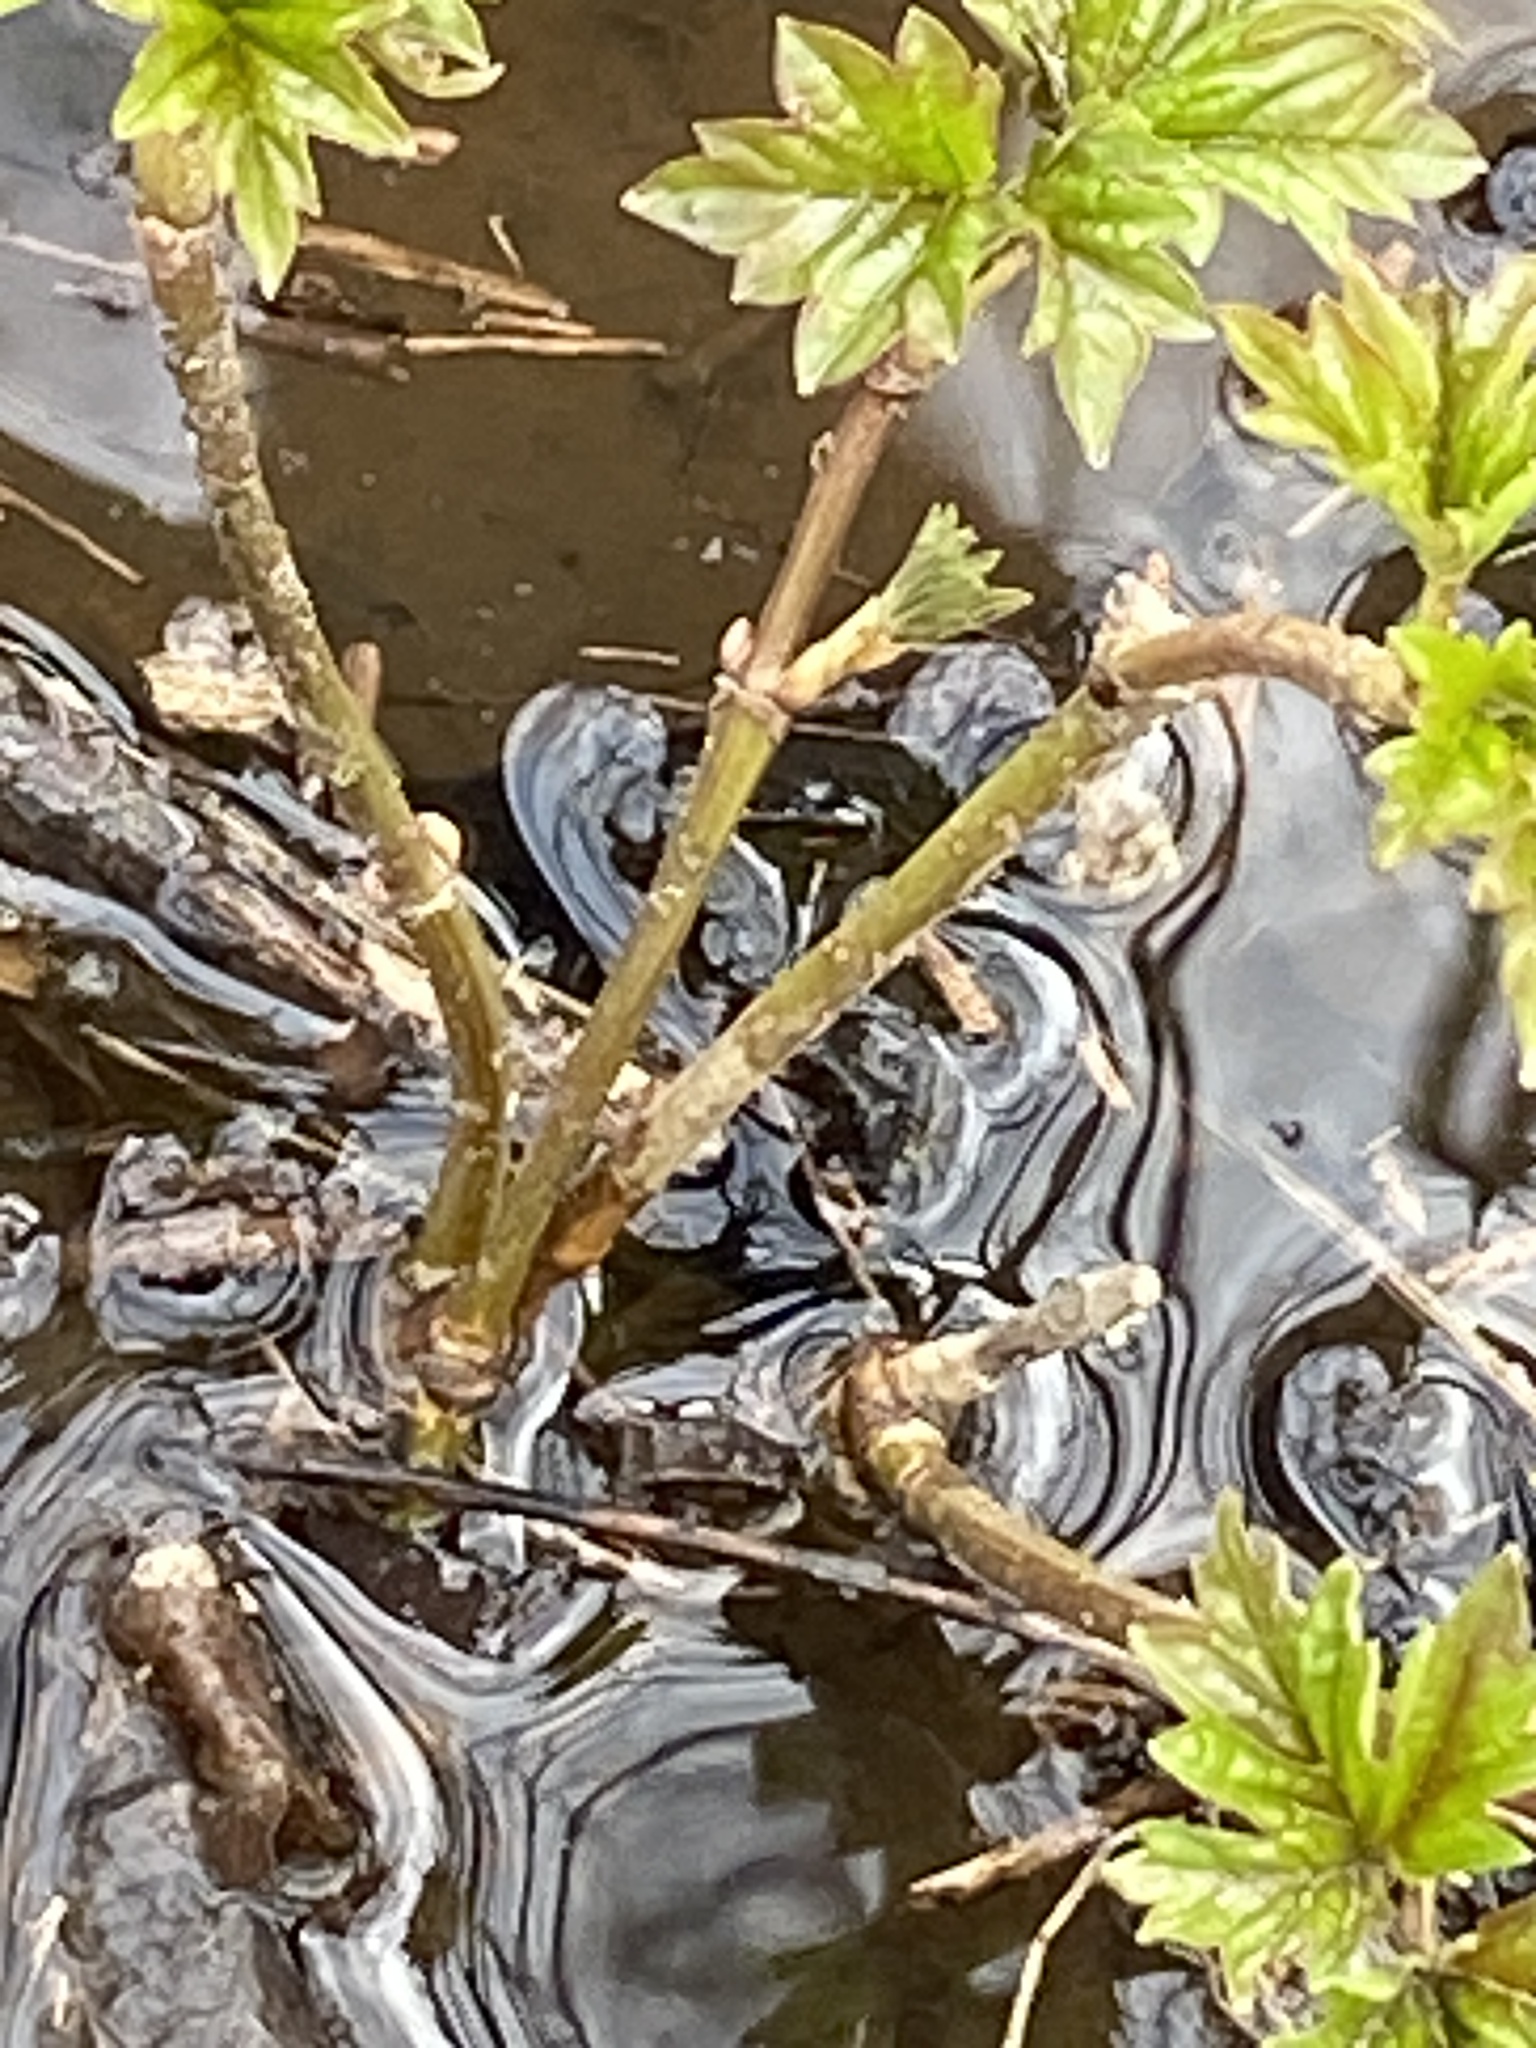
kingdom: Plantae
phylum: Tracheophyta
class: Magnoliopsida
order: Dipsacales
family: Viburnaceae
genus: Viburnum
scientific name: Viburnum opulus
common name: Guelder-rose
